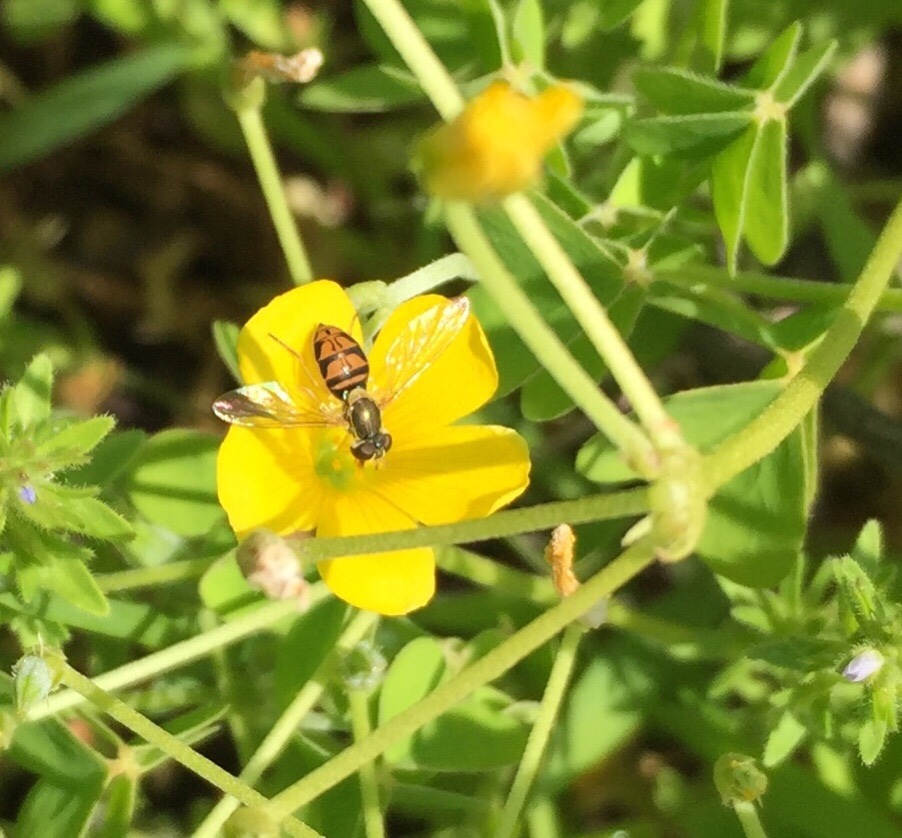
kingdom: Animalia
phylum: Arthropoda
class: Insecta
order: Diptera
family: Syrphidae
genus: Toxomerus
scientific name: Toxomerus marginatus
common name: Syrphid fly
